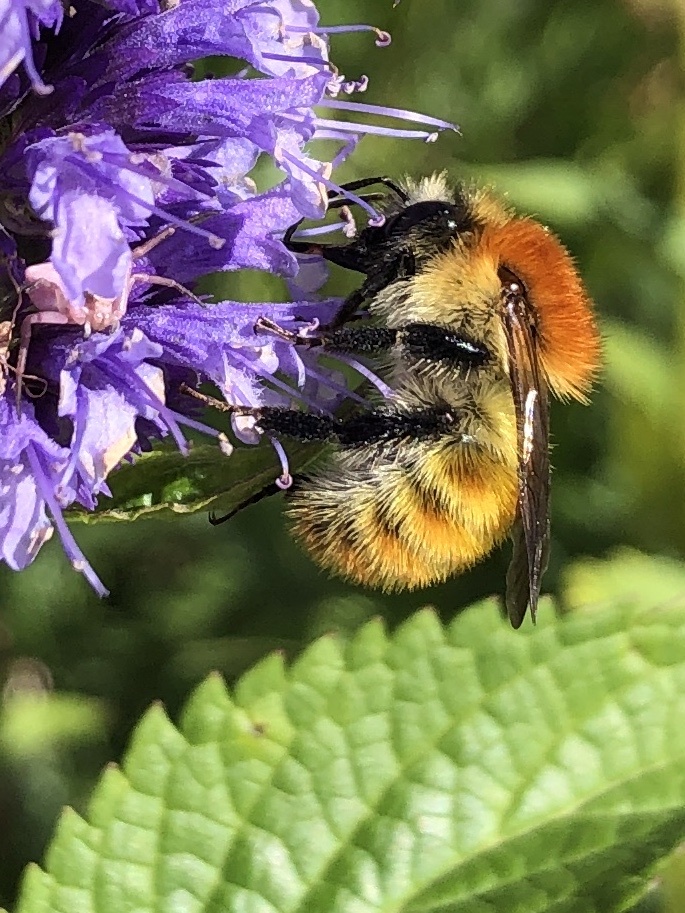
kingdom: Animalia
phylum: Arthropoda
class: Insecta
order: Hymenoptera
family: Apidae
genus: Bombus
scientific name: Bombus pascuorum
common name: Common carder bee
